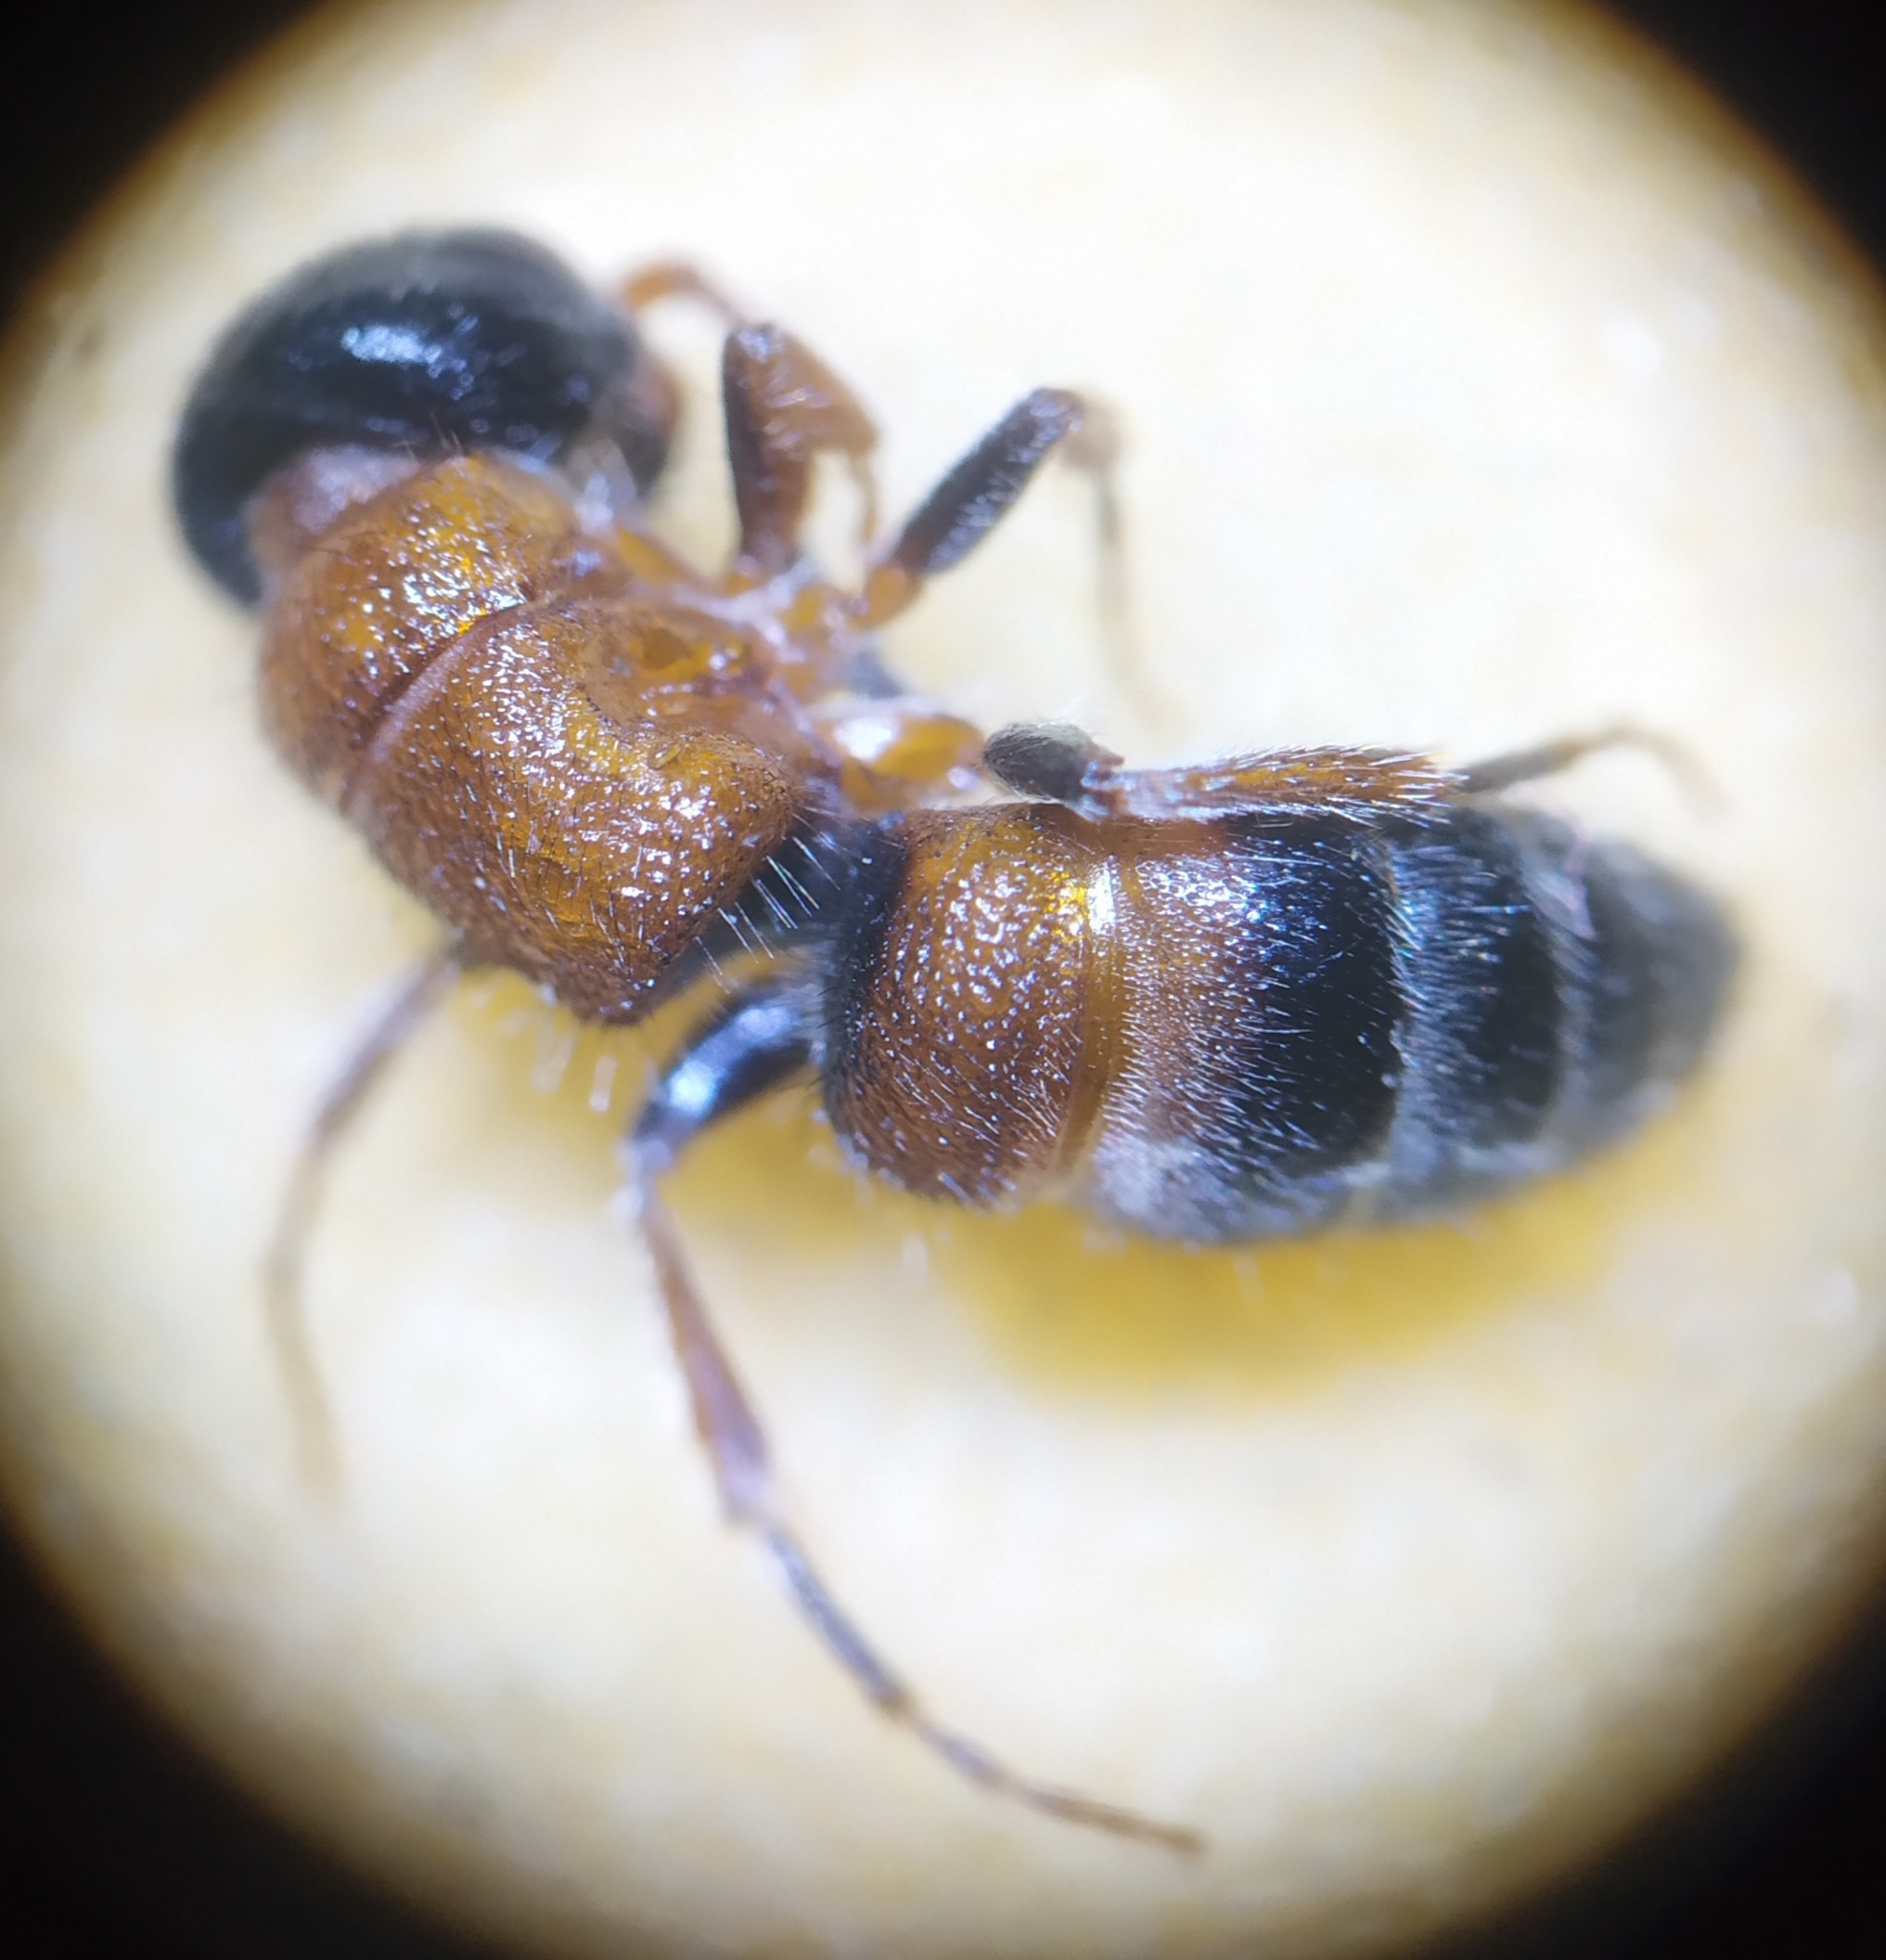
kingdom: Animalia
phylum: Arthropoda
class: Insecta
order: Hymenoptera
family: Mutillidae
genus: Paramyrmosa
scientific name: Paramyrmosa brunnipes
